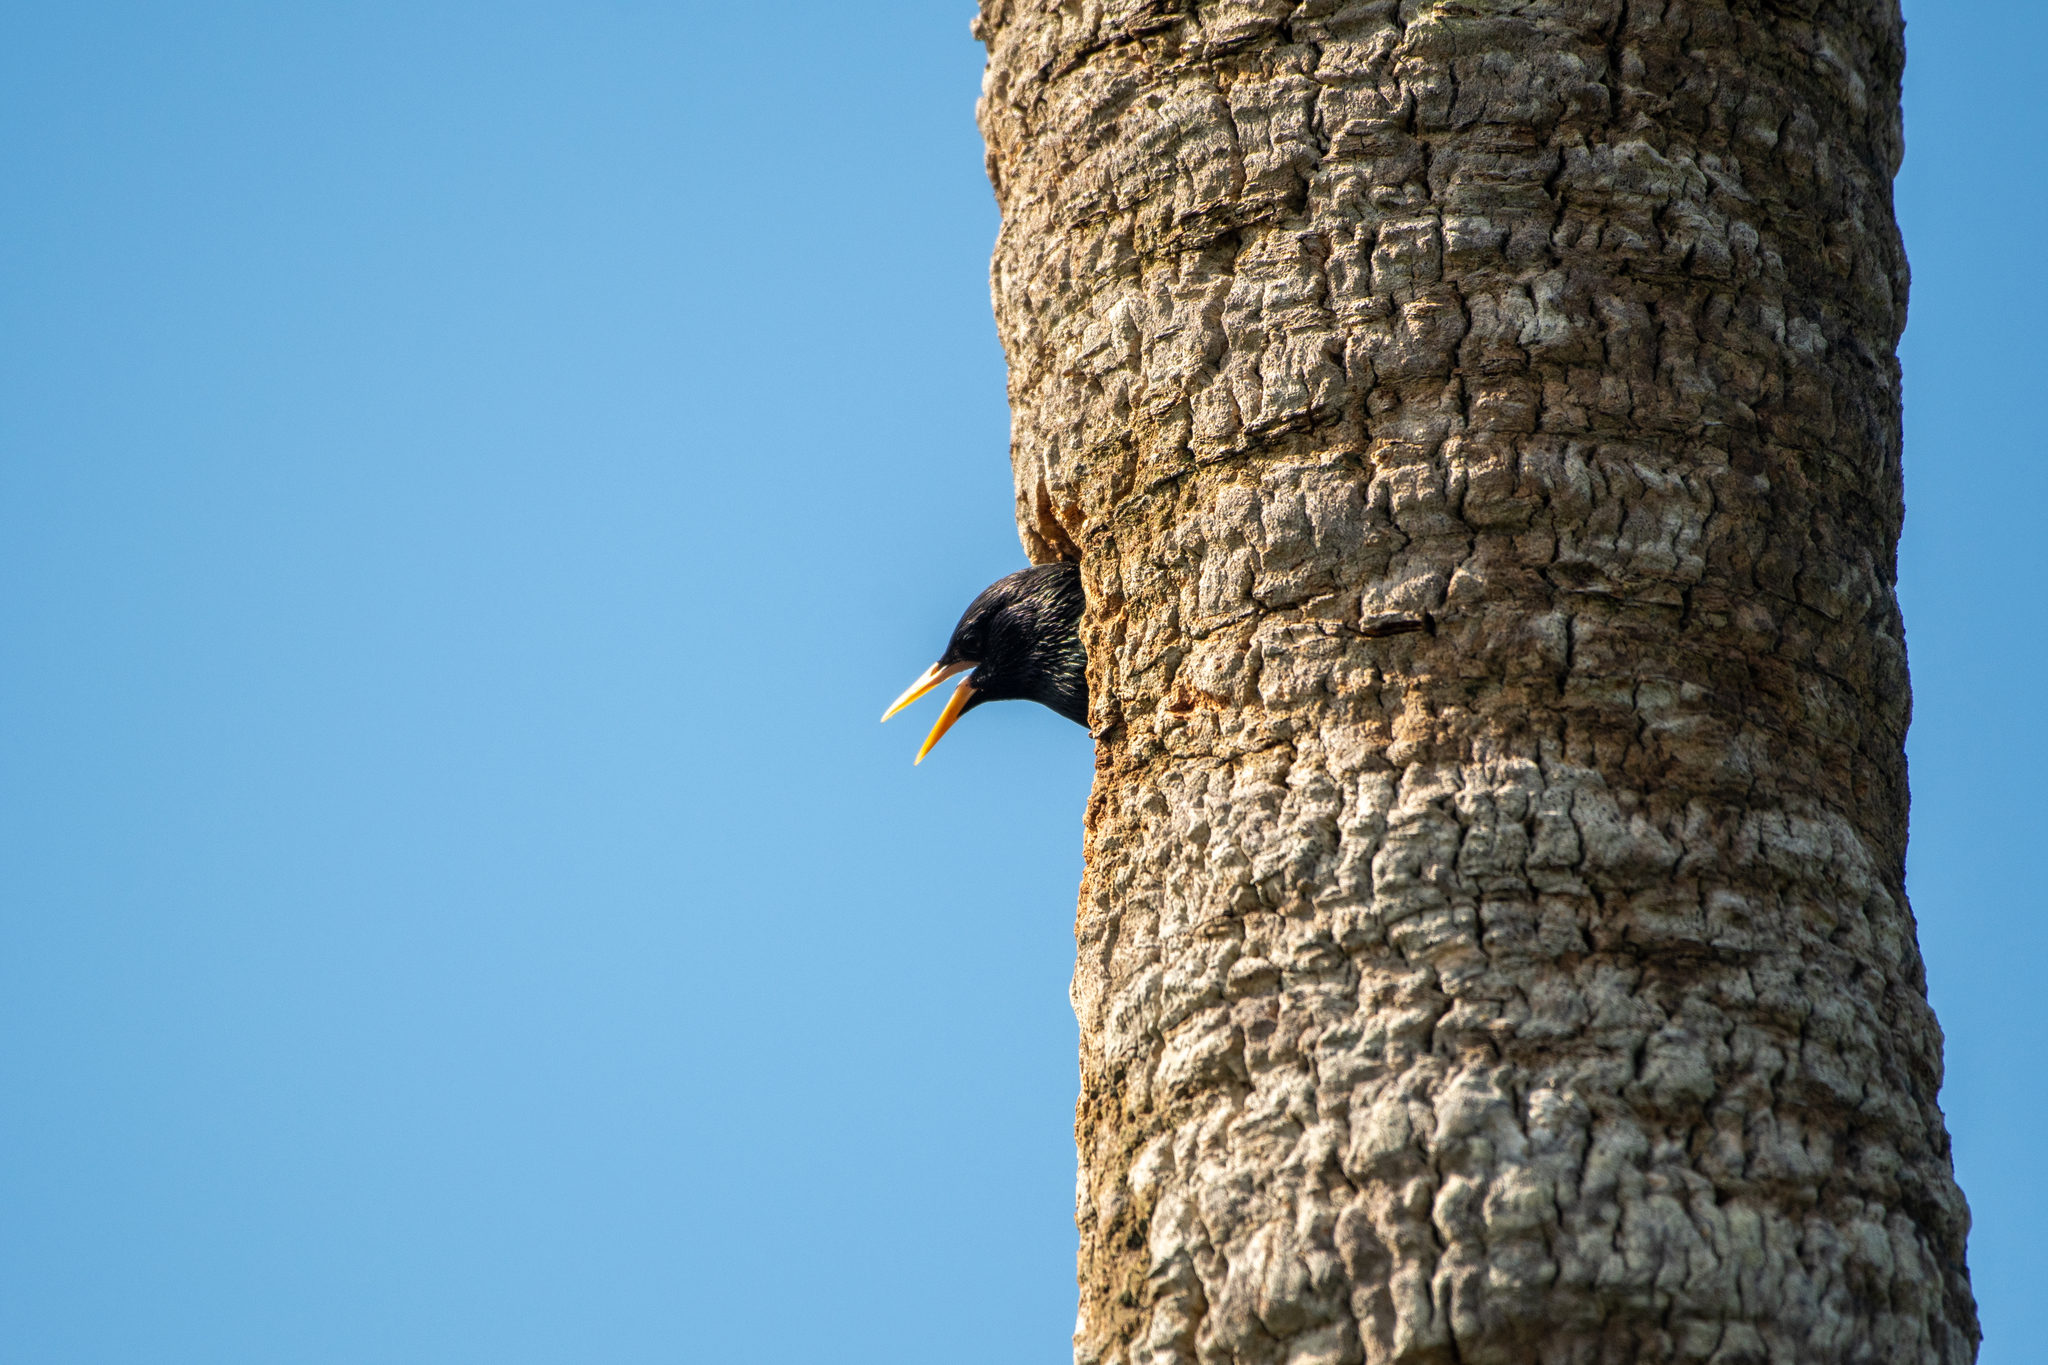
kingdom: Animalia
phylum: Chordata
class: Aves
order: Passeriformes
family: Sturnidae
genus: Sturnus
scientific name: Sturnus vulgaris
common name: Common starling
